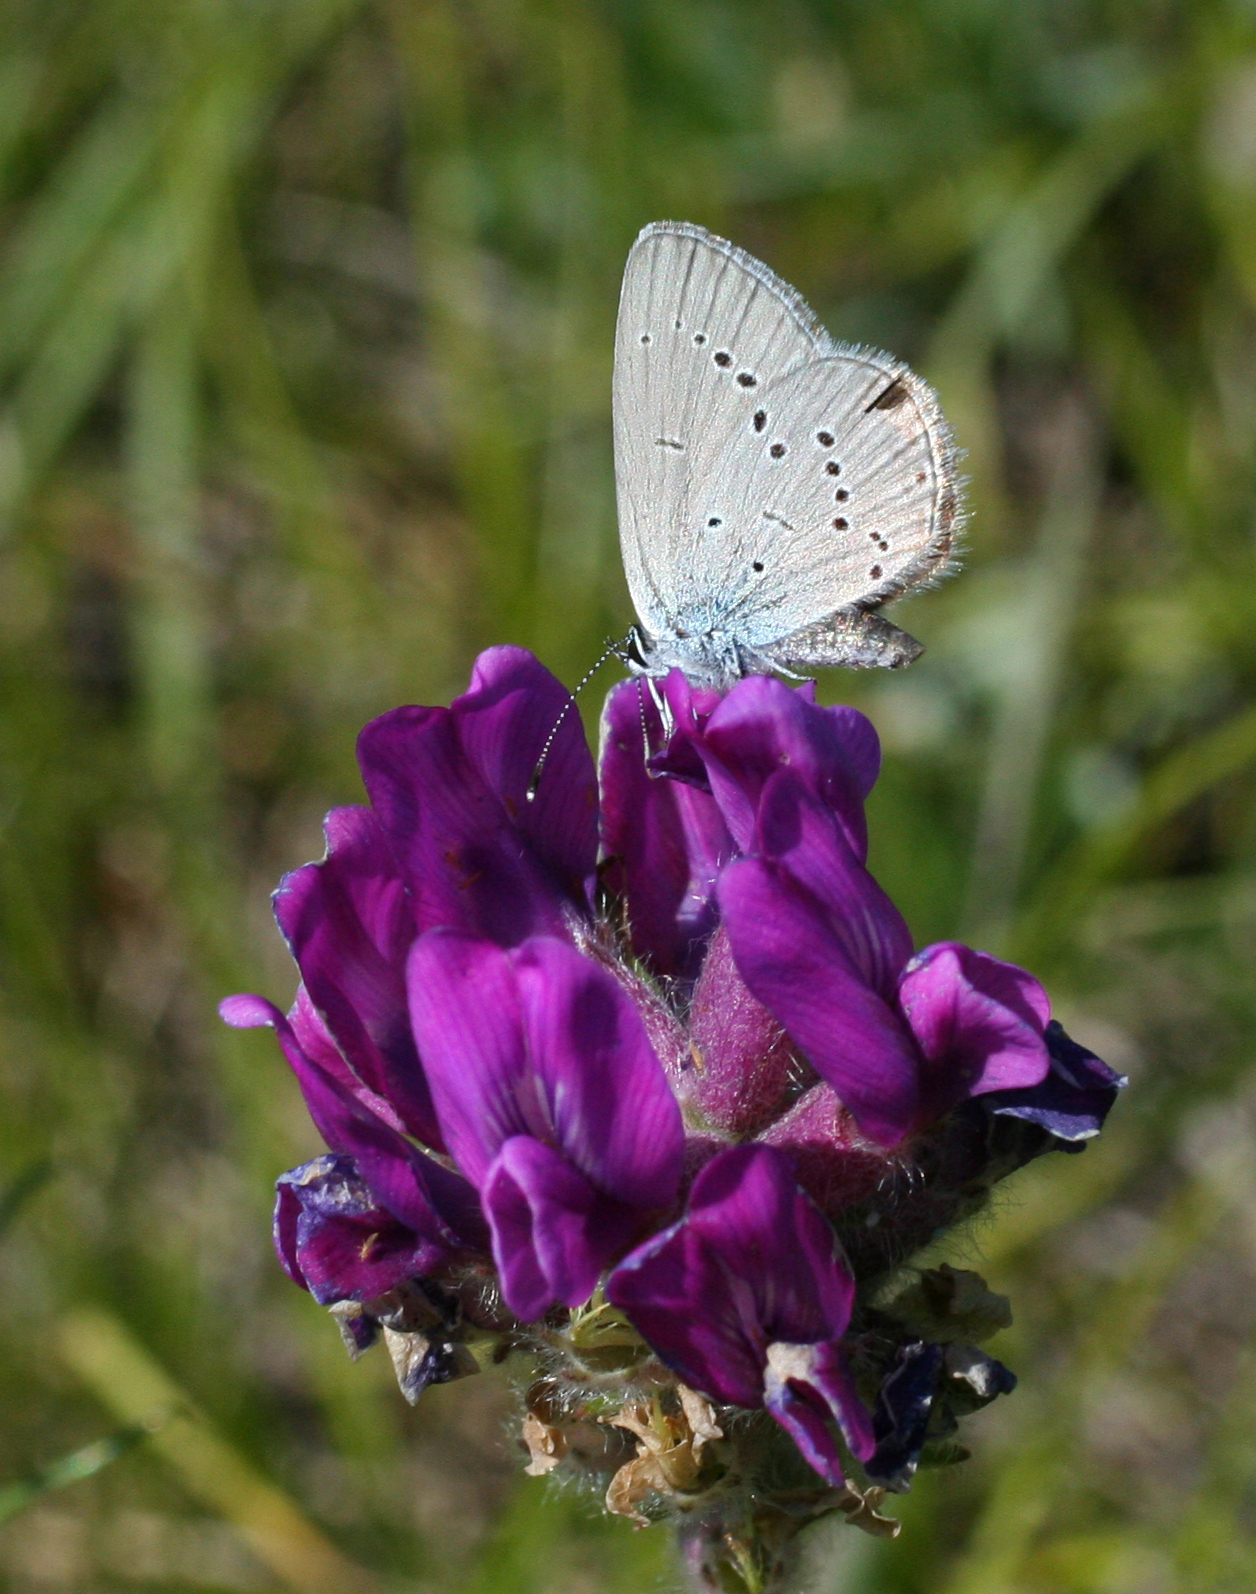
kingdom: Plantae
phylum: Tracheophyta
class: Magnoliopsida
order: Fabales
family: Fabaceae
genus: Oxytropis
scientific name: Oxytropis campanulata
